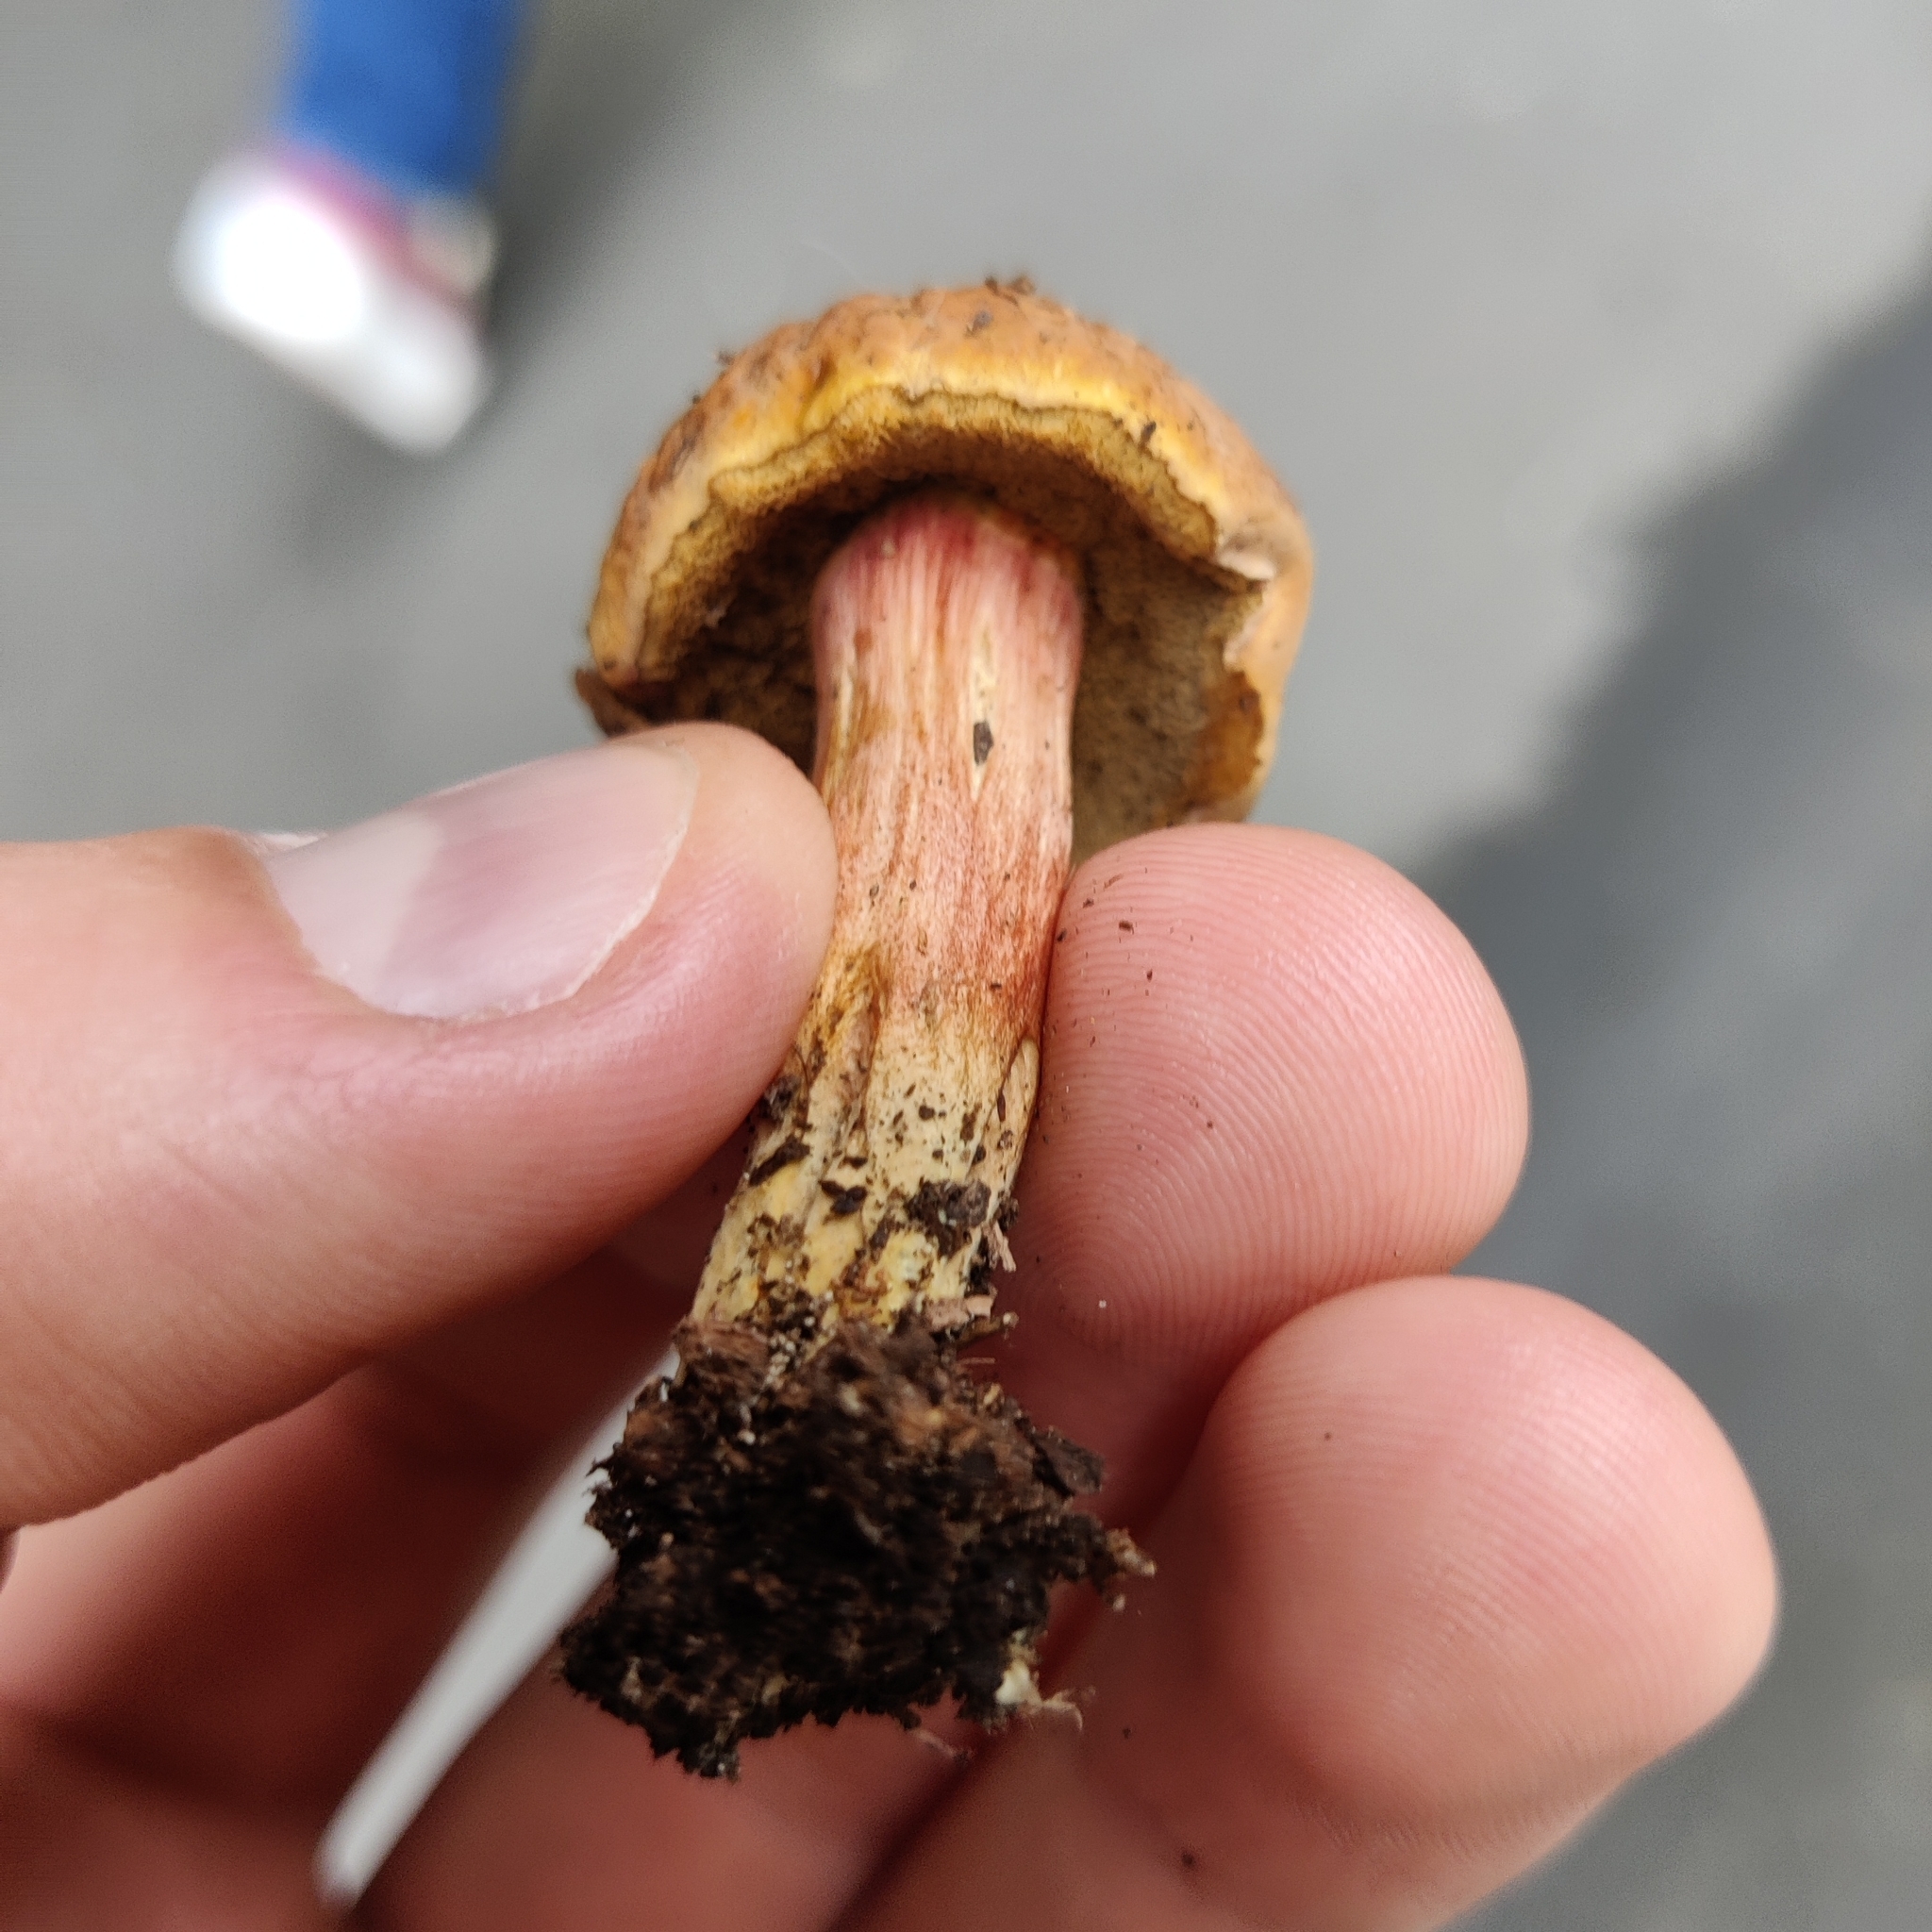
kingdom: Fungi
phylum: Basidiomycota
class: Agaricomycetes
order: Boletales
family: Boletaceae
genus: Chalciporus
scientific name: Chalciporus piperatus
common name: Peppery bolete
